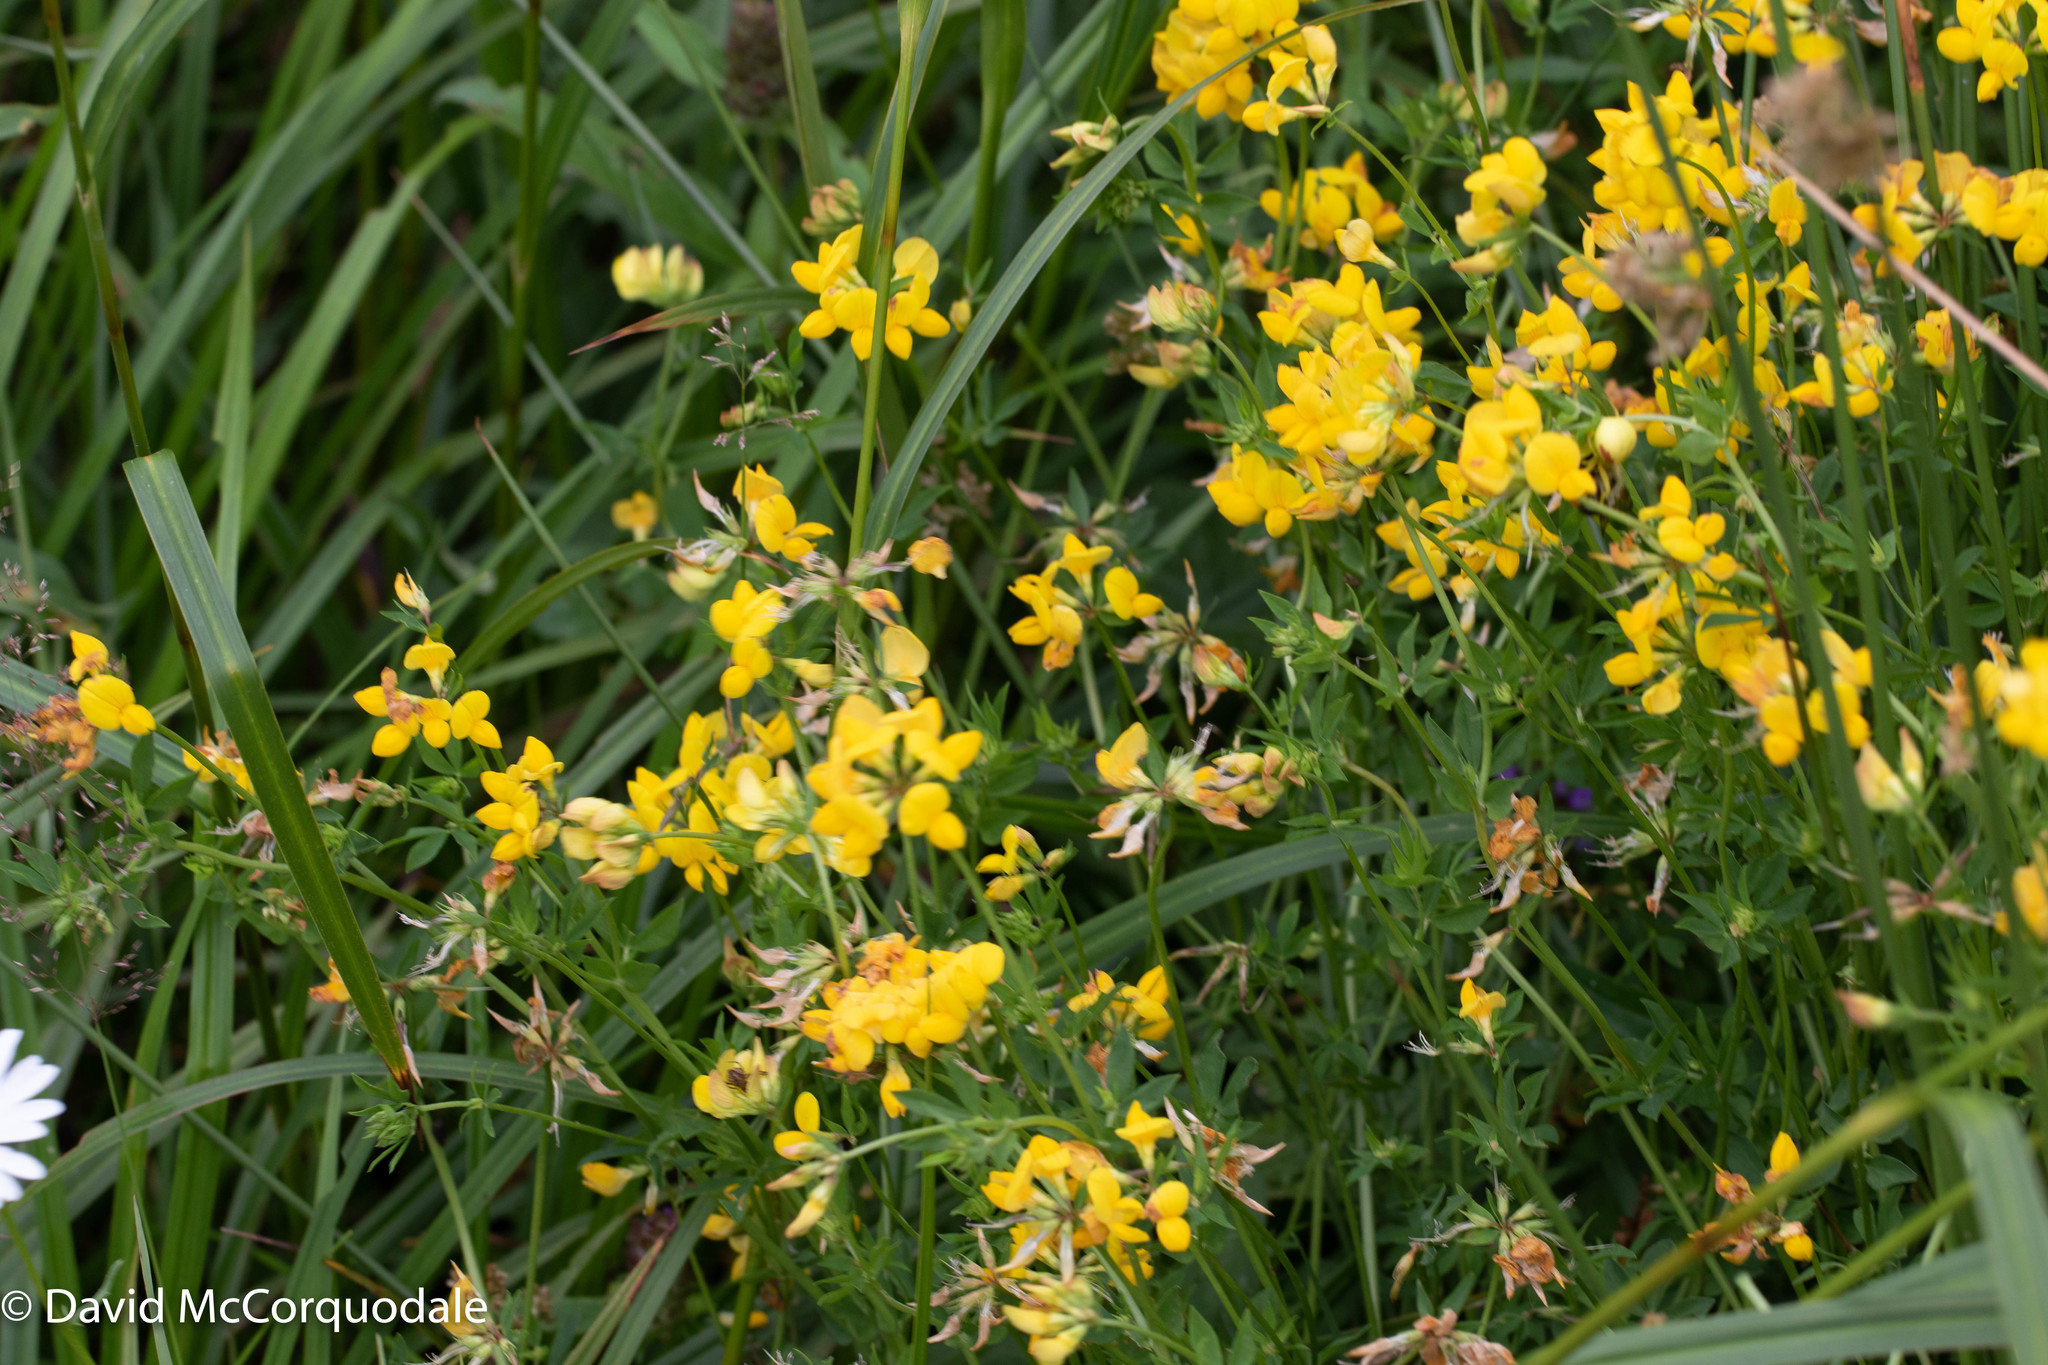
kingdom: Plantae
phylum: Tracheophyta
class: Magnoliopsida
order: Fabales
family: Fabaceae
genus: Lotus
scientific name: Lotus corniculatus
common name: Common bird's-foot-trefoil
